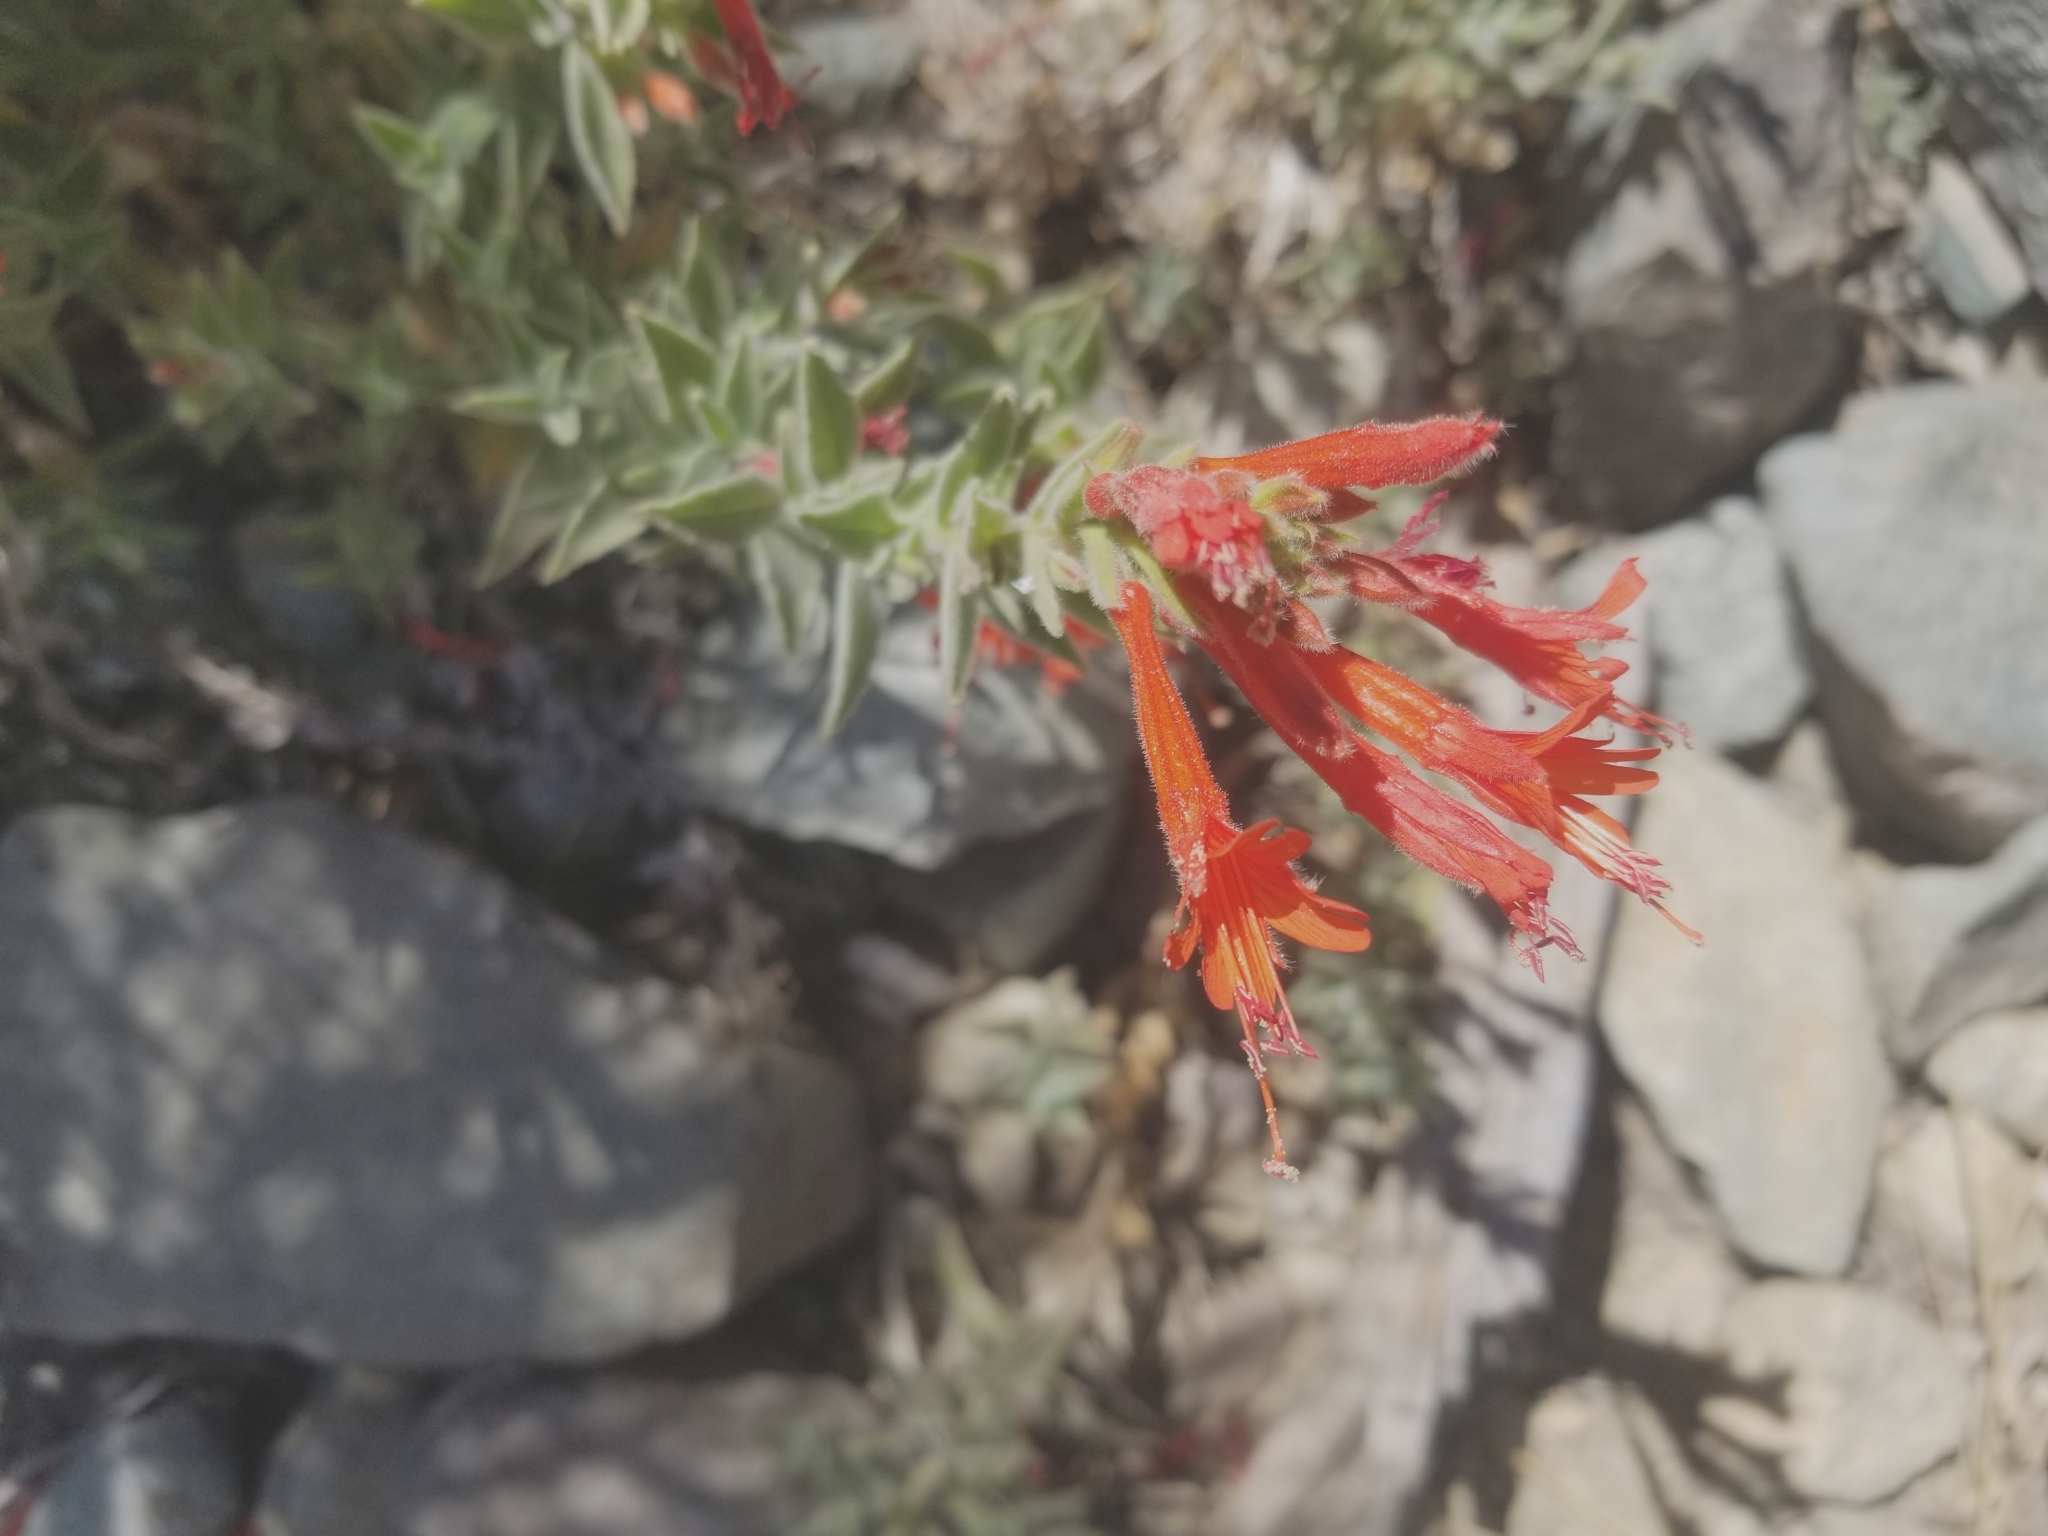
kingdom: Plantae
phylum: Tracheophyta
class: Magnoliopsida
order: Myrtales
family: Onagraceae
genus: Epilobium
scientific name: Epilobium canum
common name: California-fuchsia
